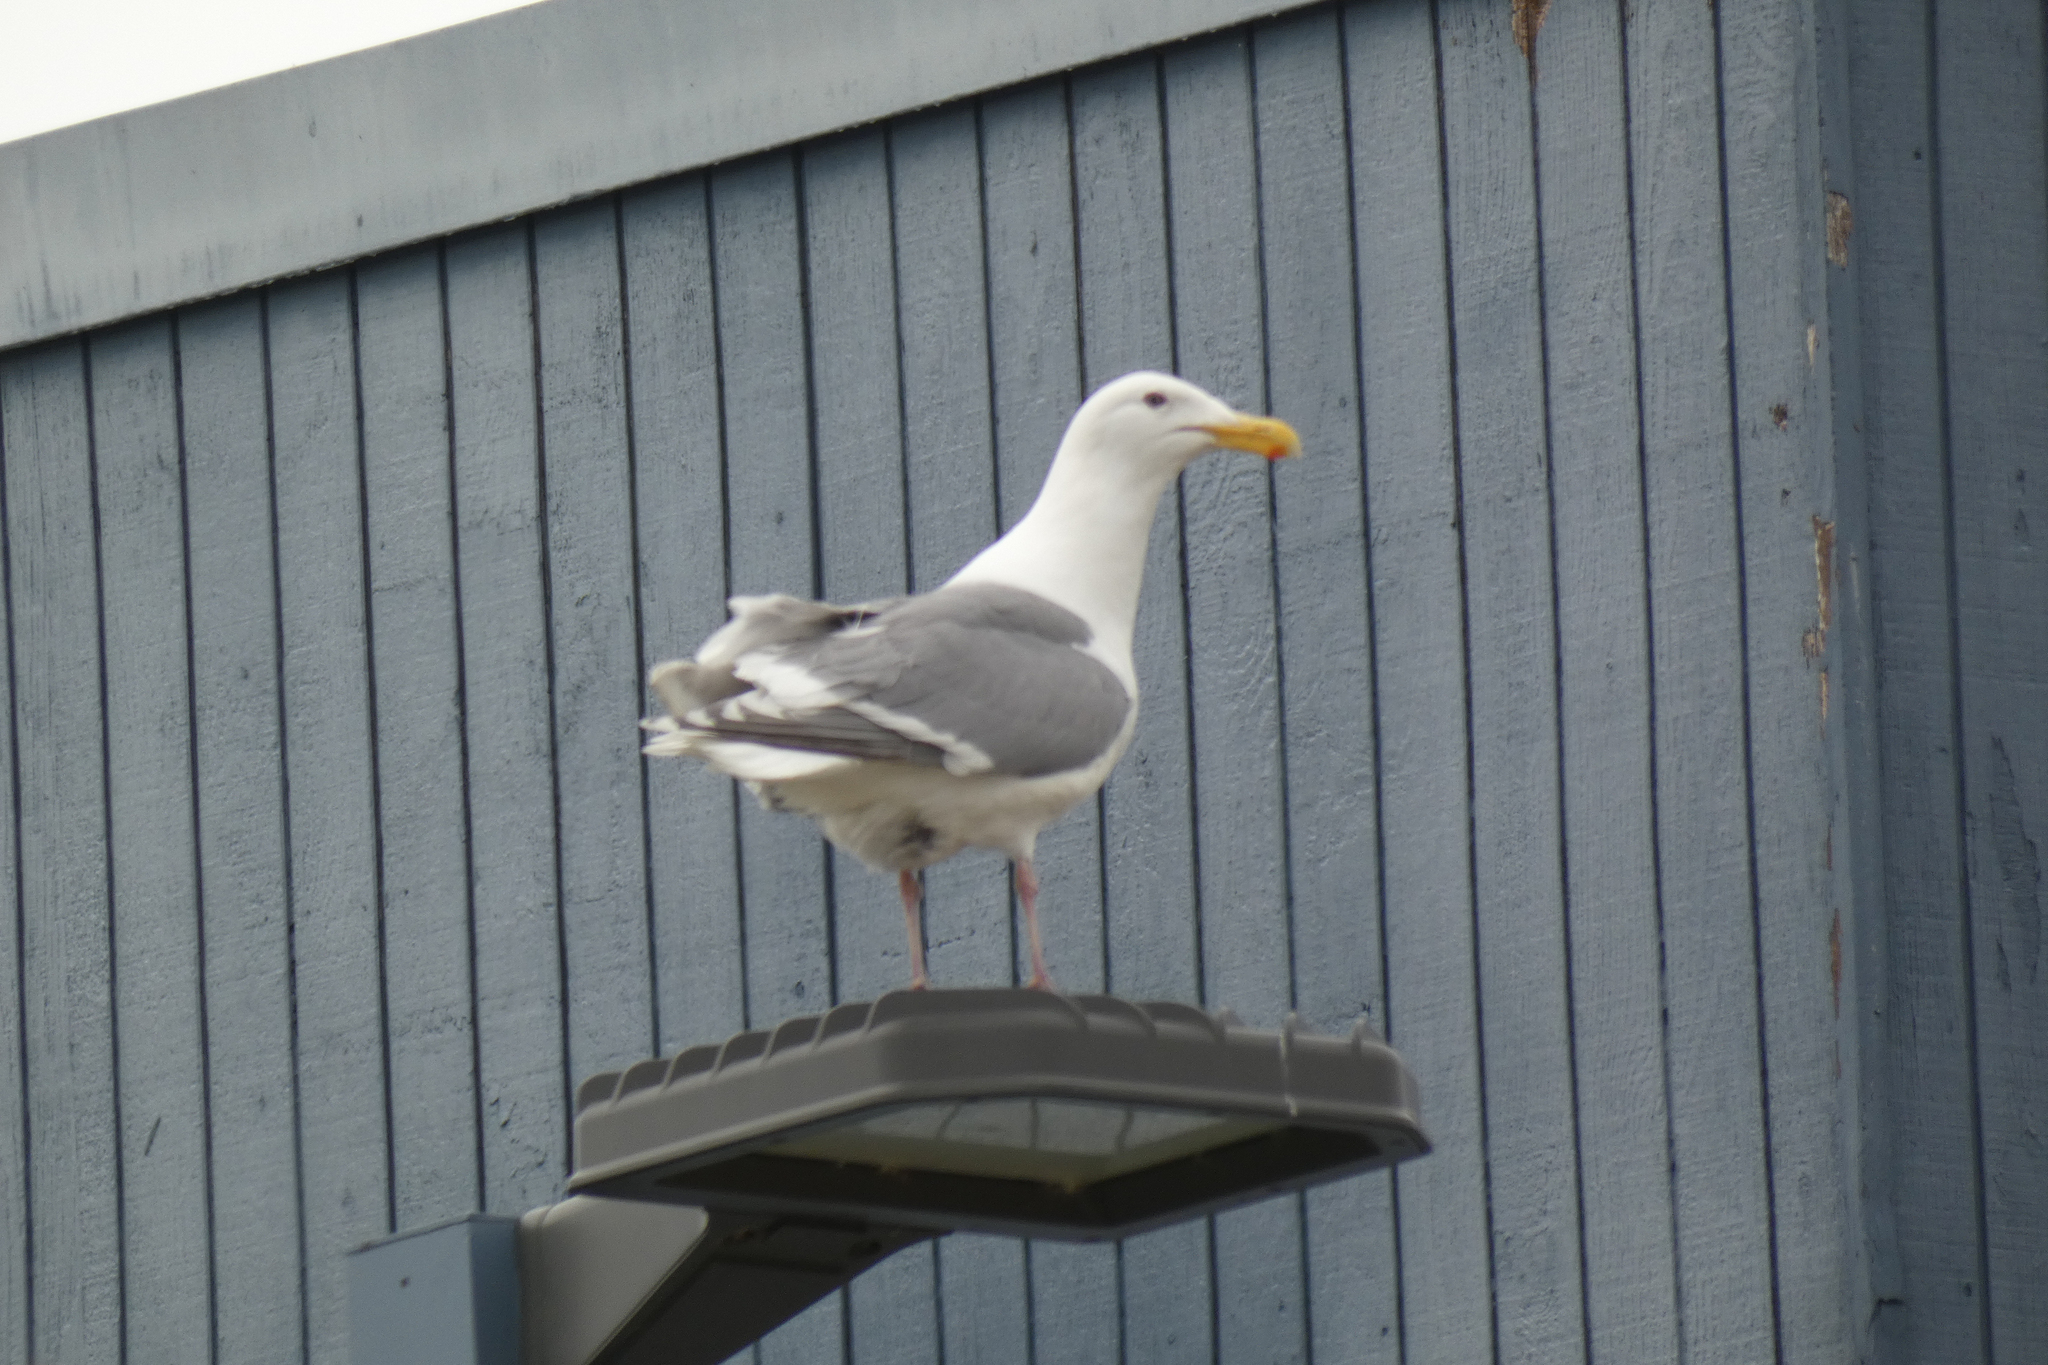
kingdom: Animalia
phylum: Chordata
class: Aves
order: Charadriiformes
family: Laridae
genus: Larus
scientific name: Larus
